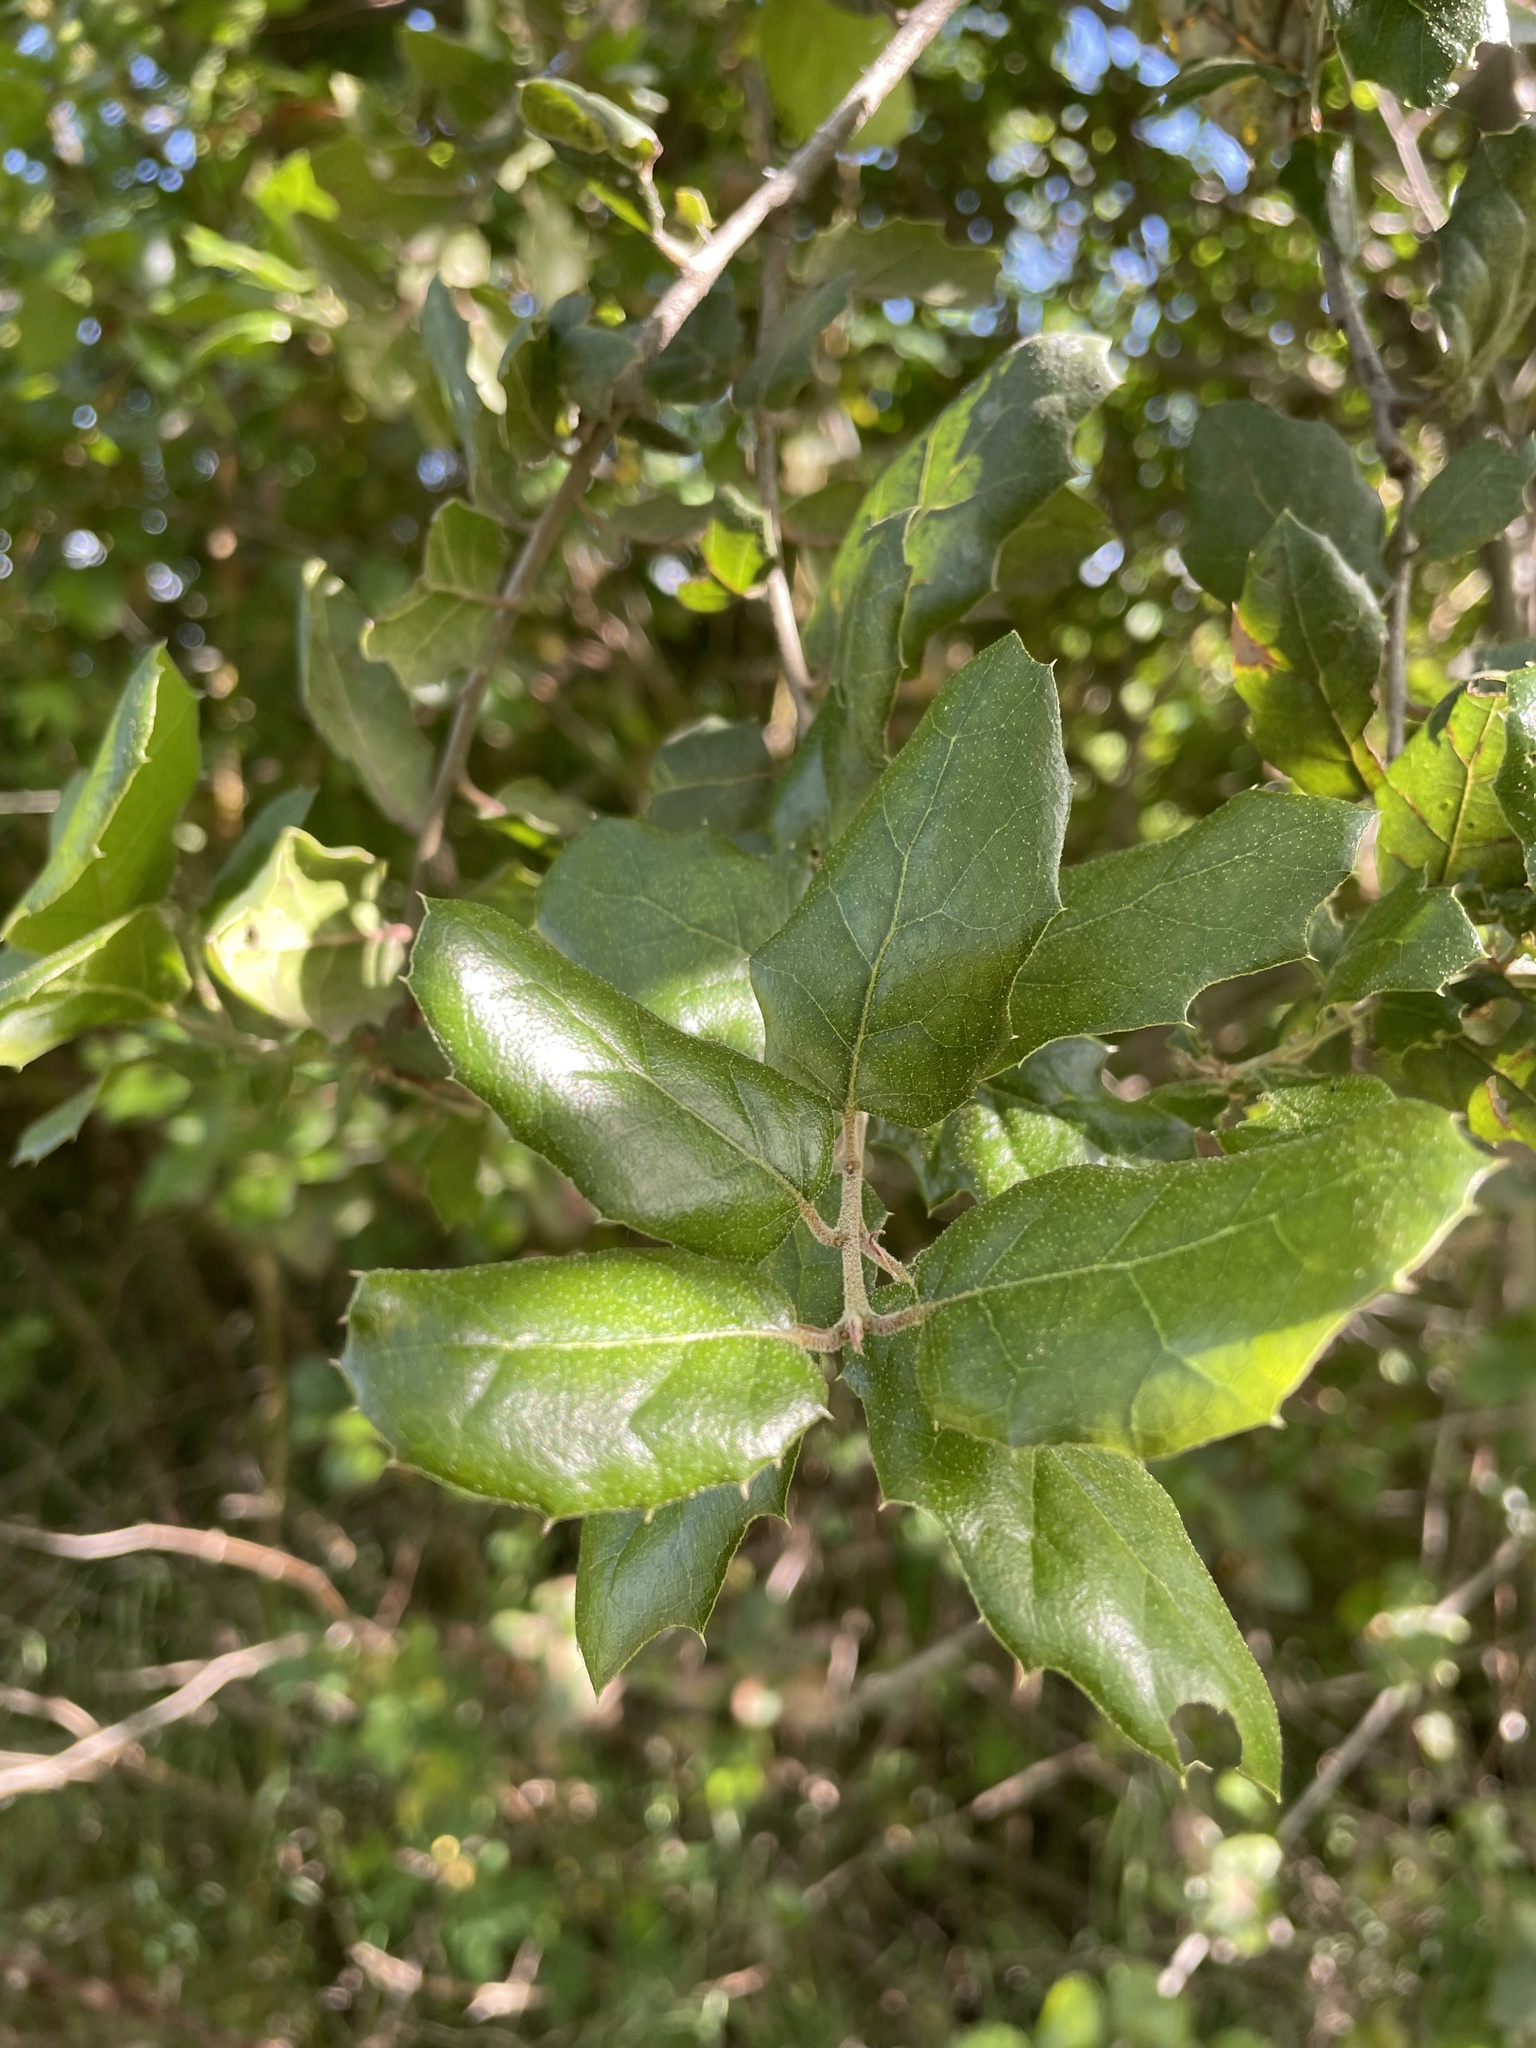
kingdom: Plantae
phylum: Tracheophyta
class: Magnoliopsida
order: Fagales
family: Fagaceae
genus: Quercus
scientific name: Quercus agrifolia
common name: California live oak
